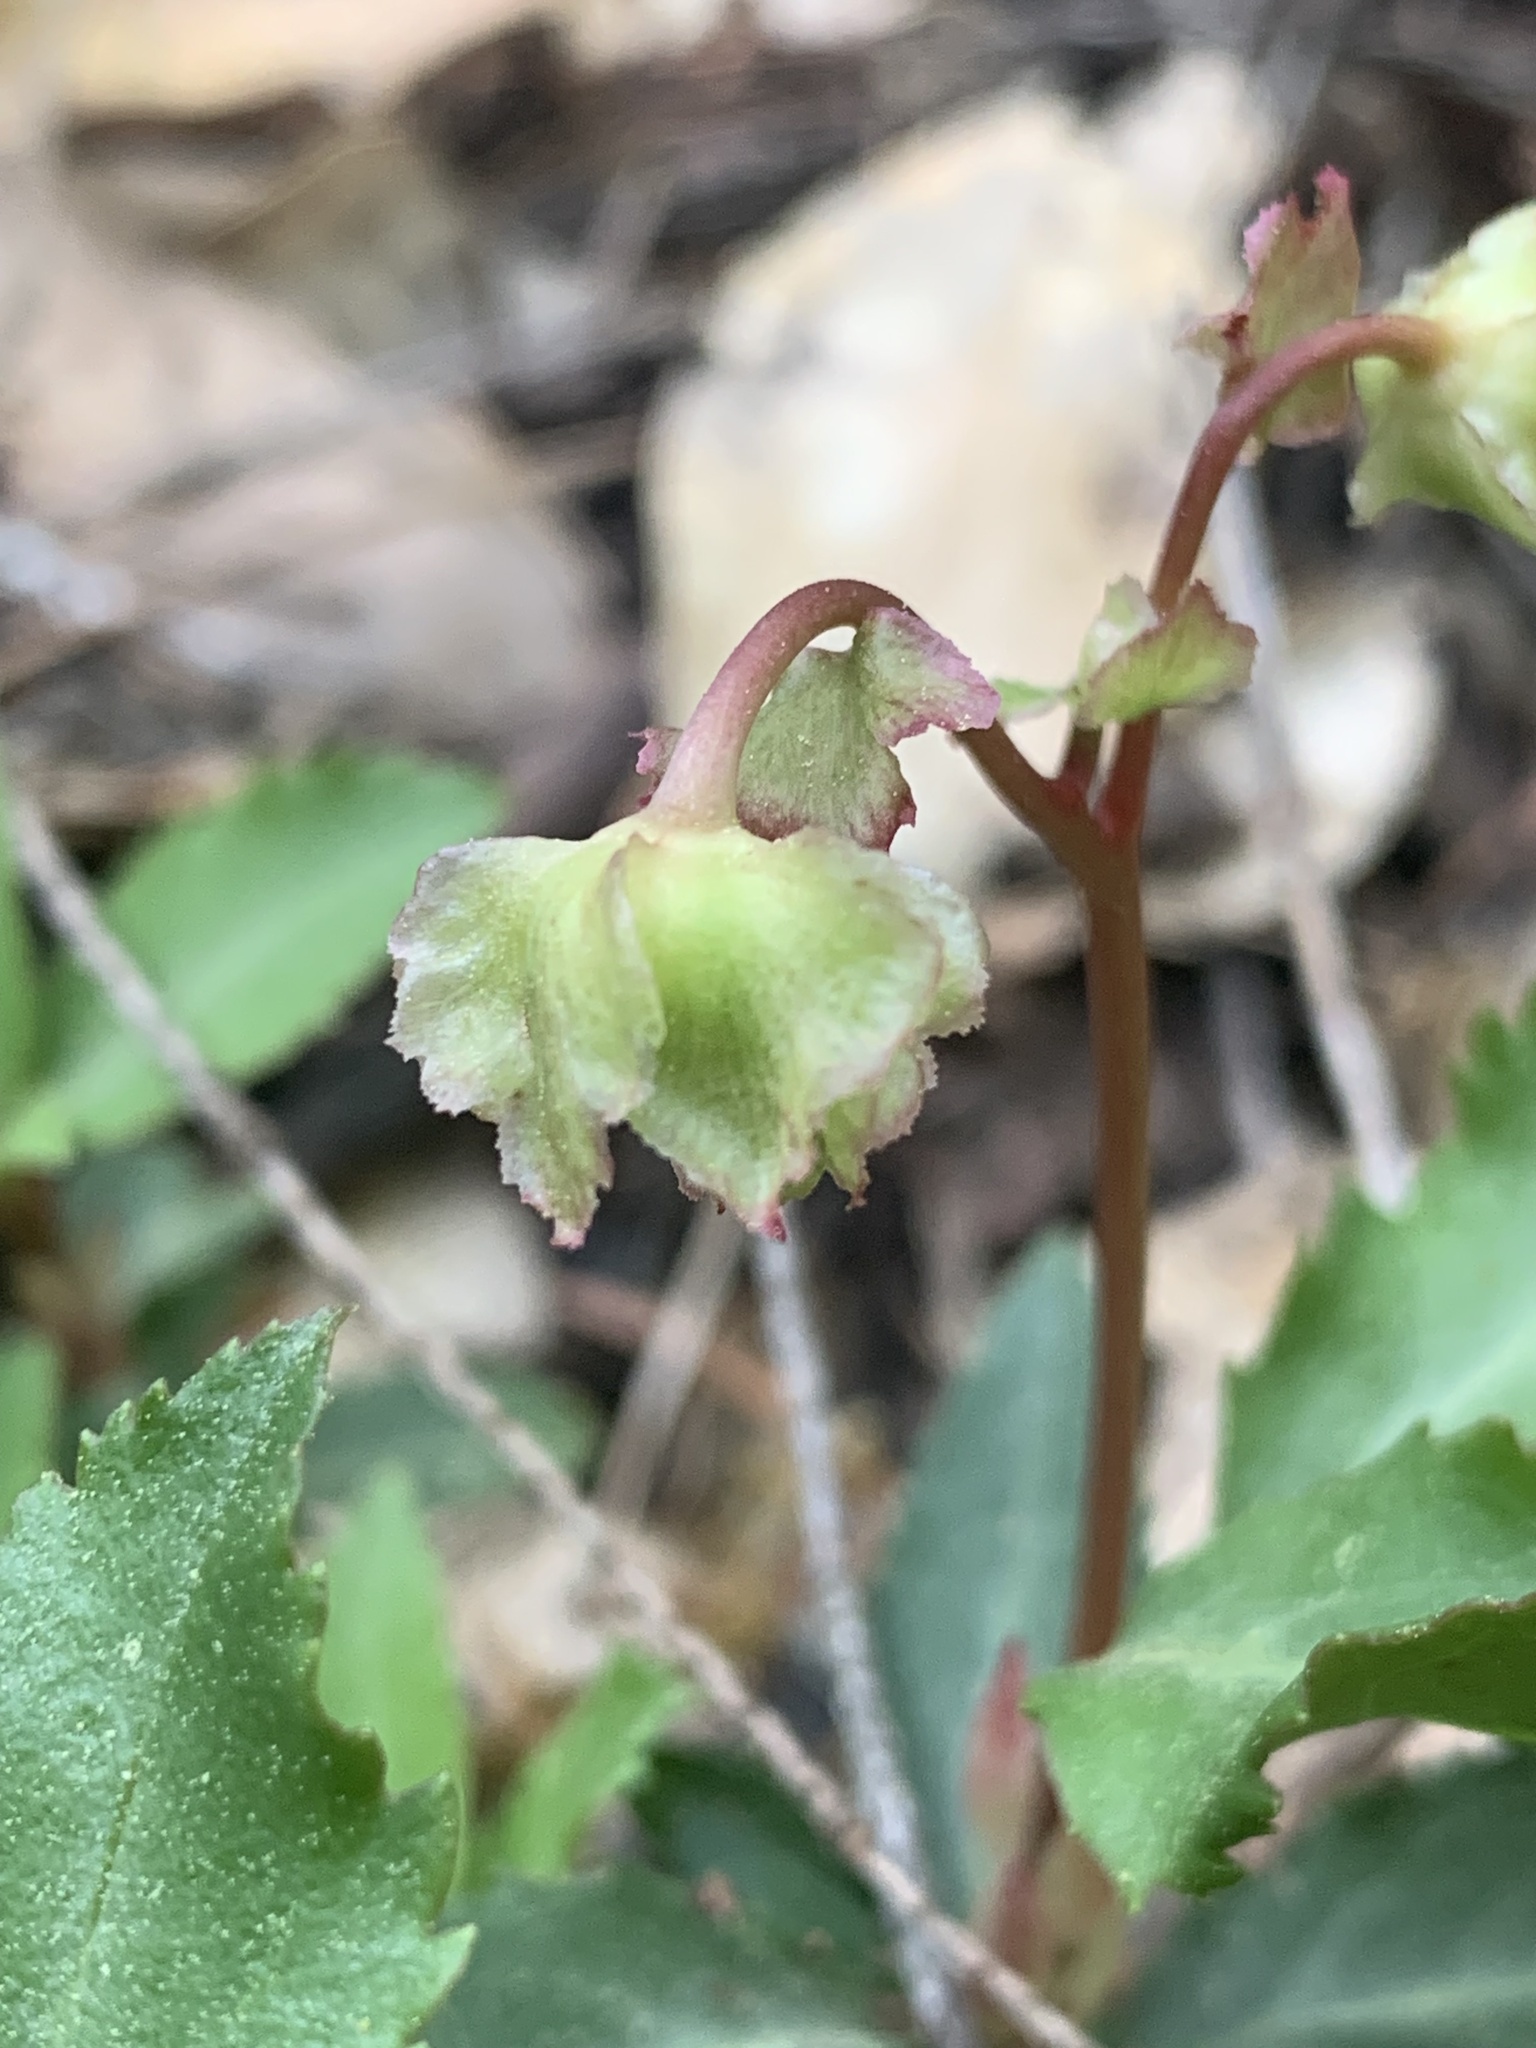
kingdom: Plantae
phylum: Tracheophyta
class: Magnoliopsida
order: Ericales
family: Ericaceae
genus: Chimaphila
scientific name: Chimaphila menziesii
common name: Menzies' pipsissewa
